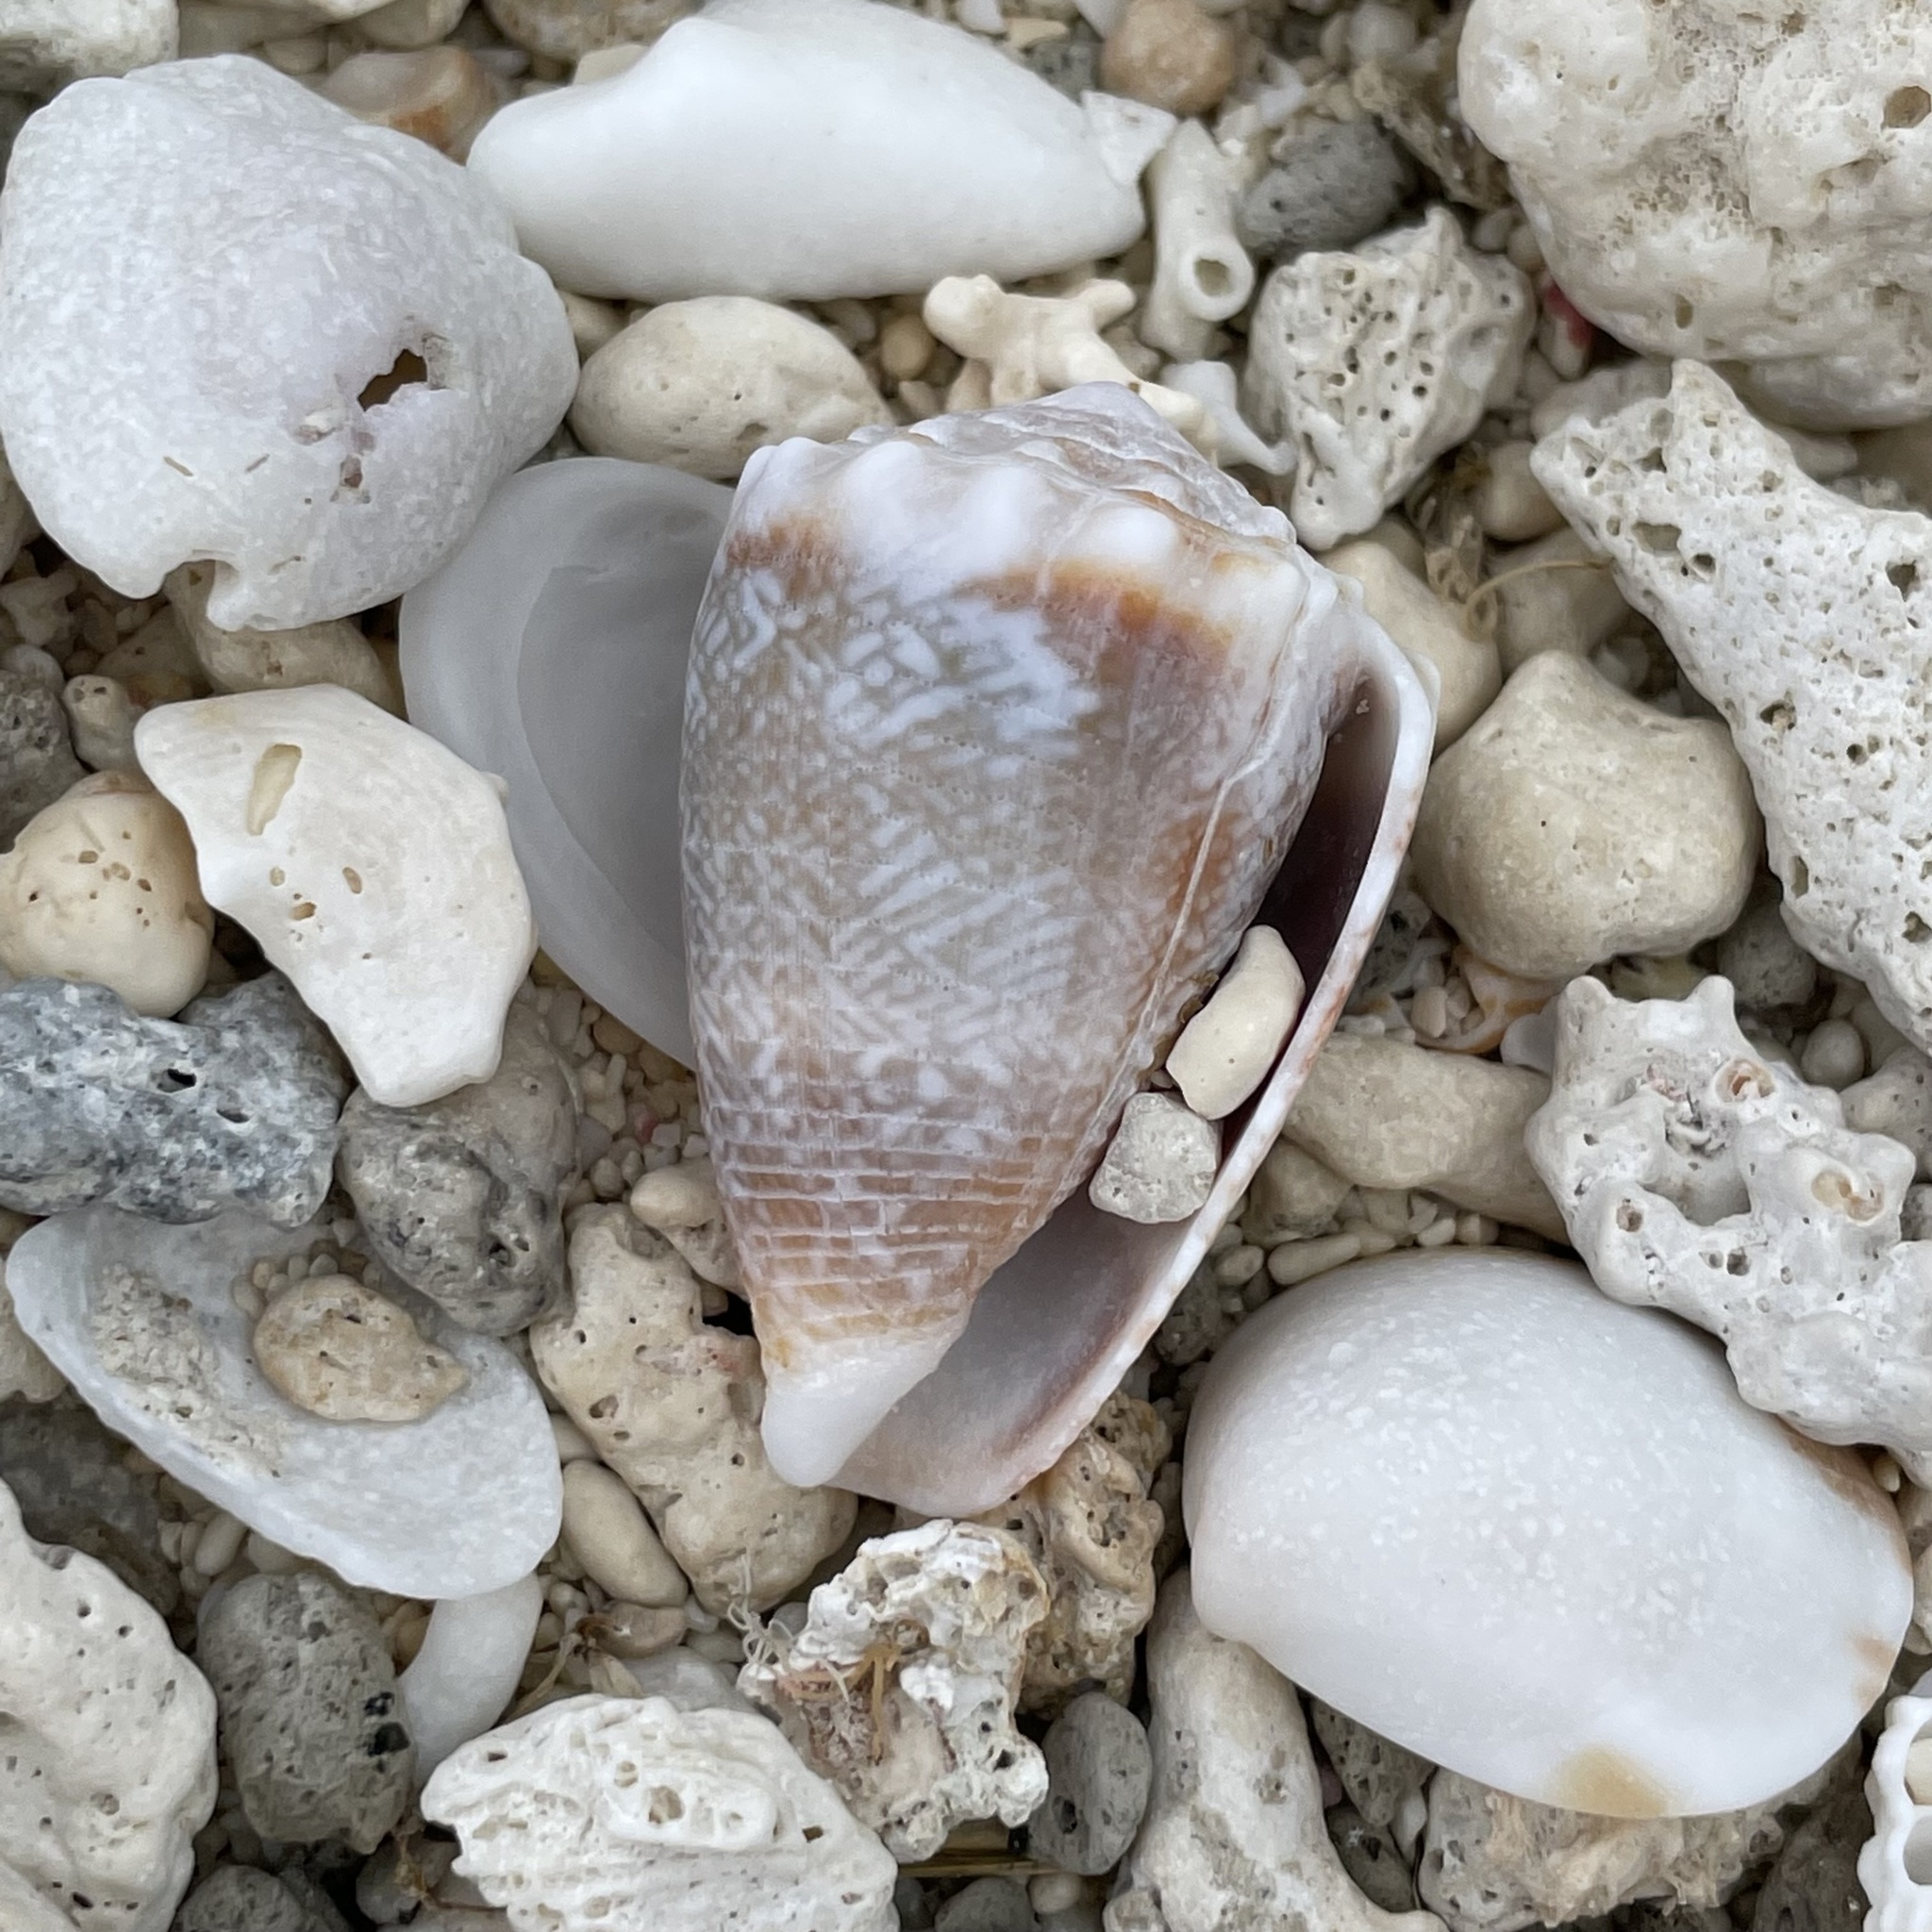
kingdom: Animalia
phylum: Mollusca
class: Gastropoda
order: Neogastropoda
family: Conidae
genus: Conus
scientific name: Conus fulgetrum
